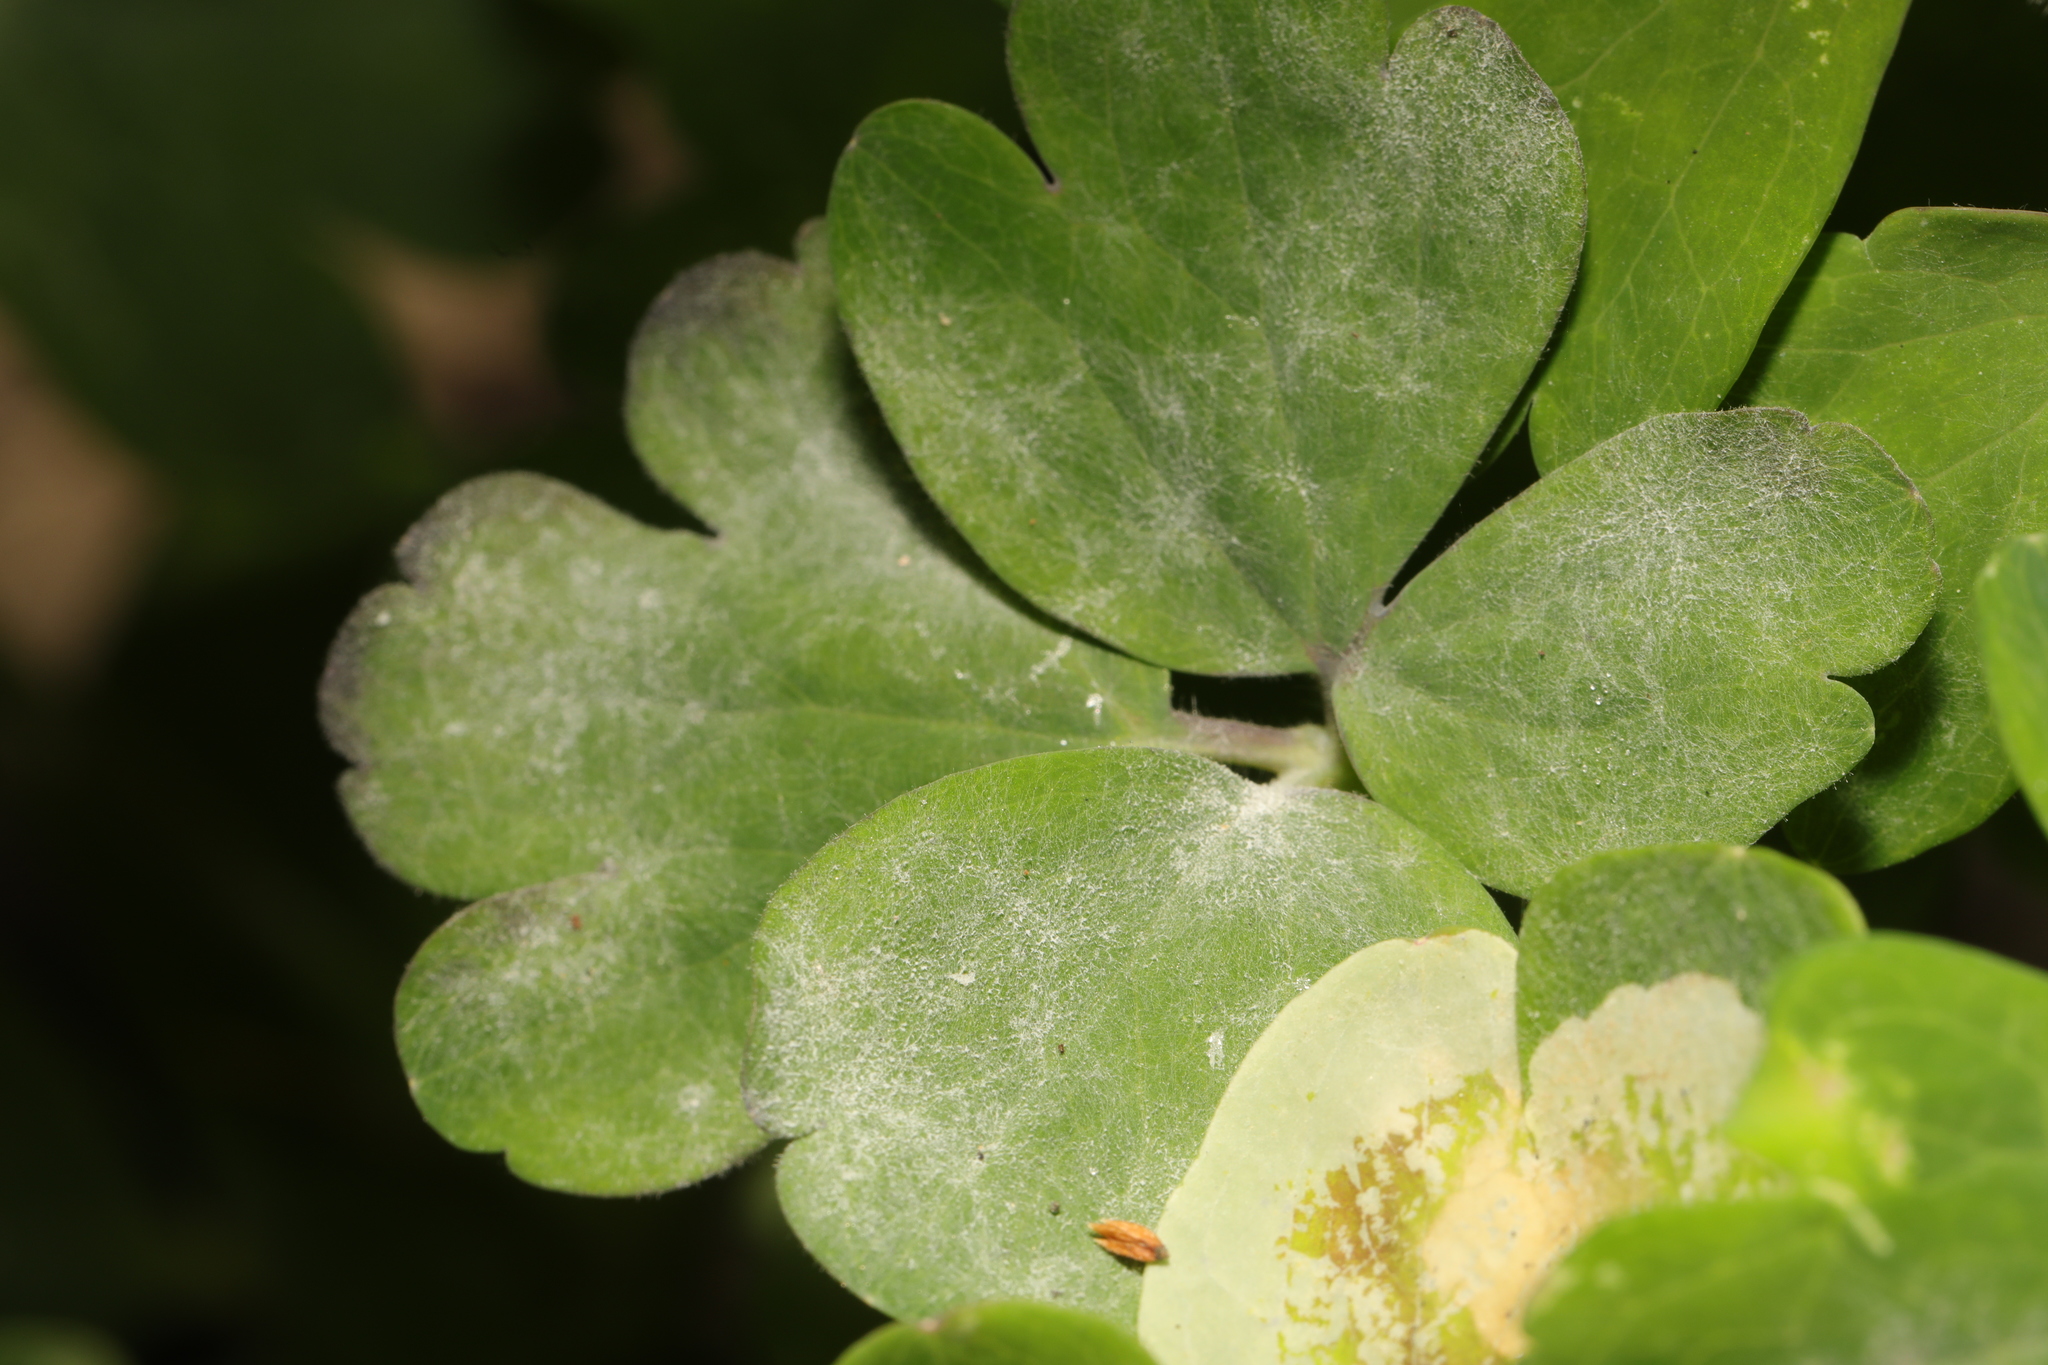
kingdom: Fungi
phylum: Ascomycota
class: Leotiomycetes
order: Helotiales
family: Erysiphaceae
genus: Erysiphe
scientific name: Erysiphe aquilegiae
